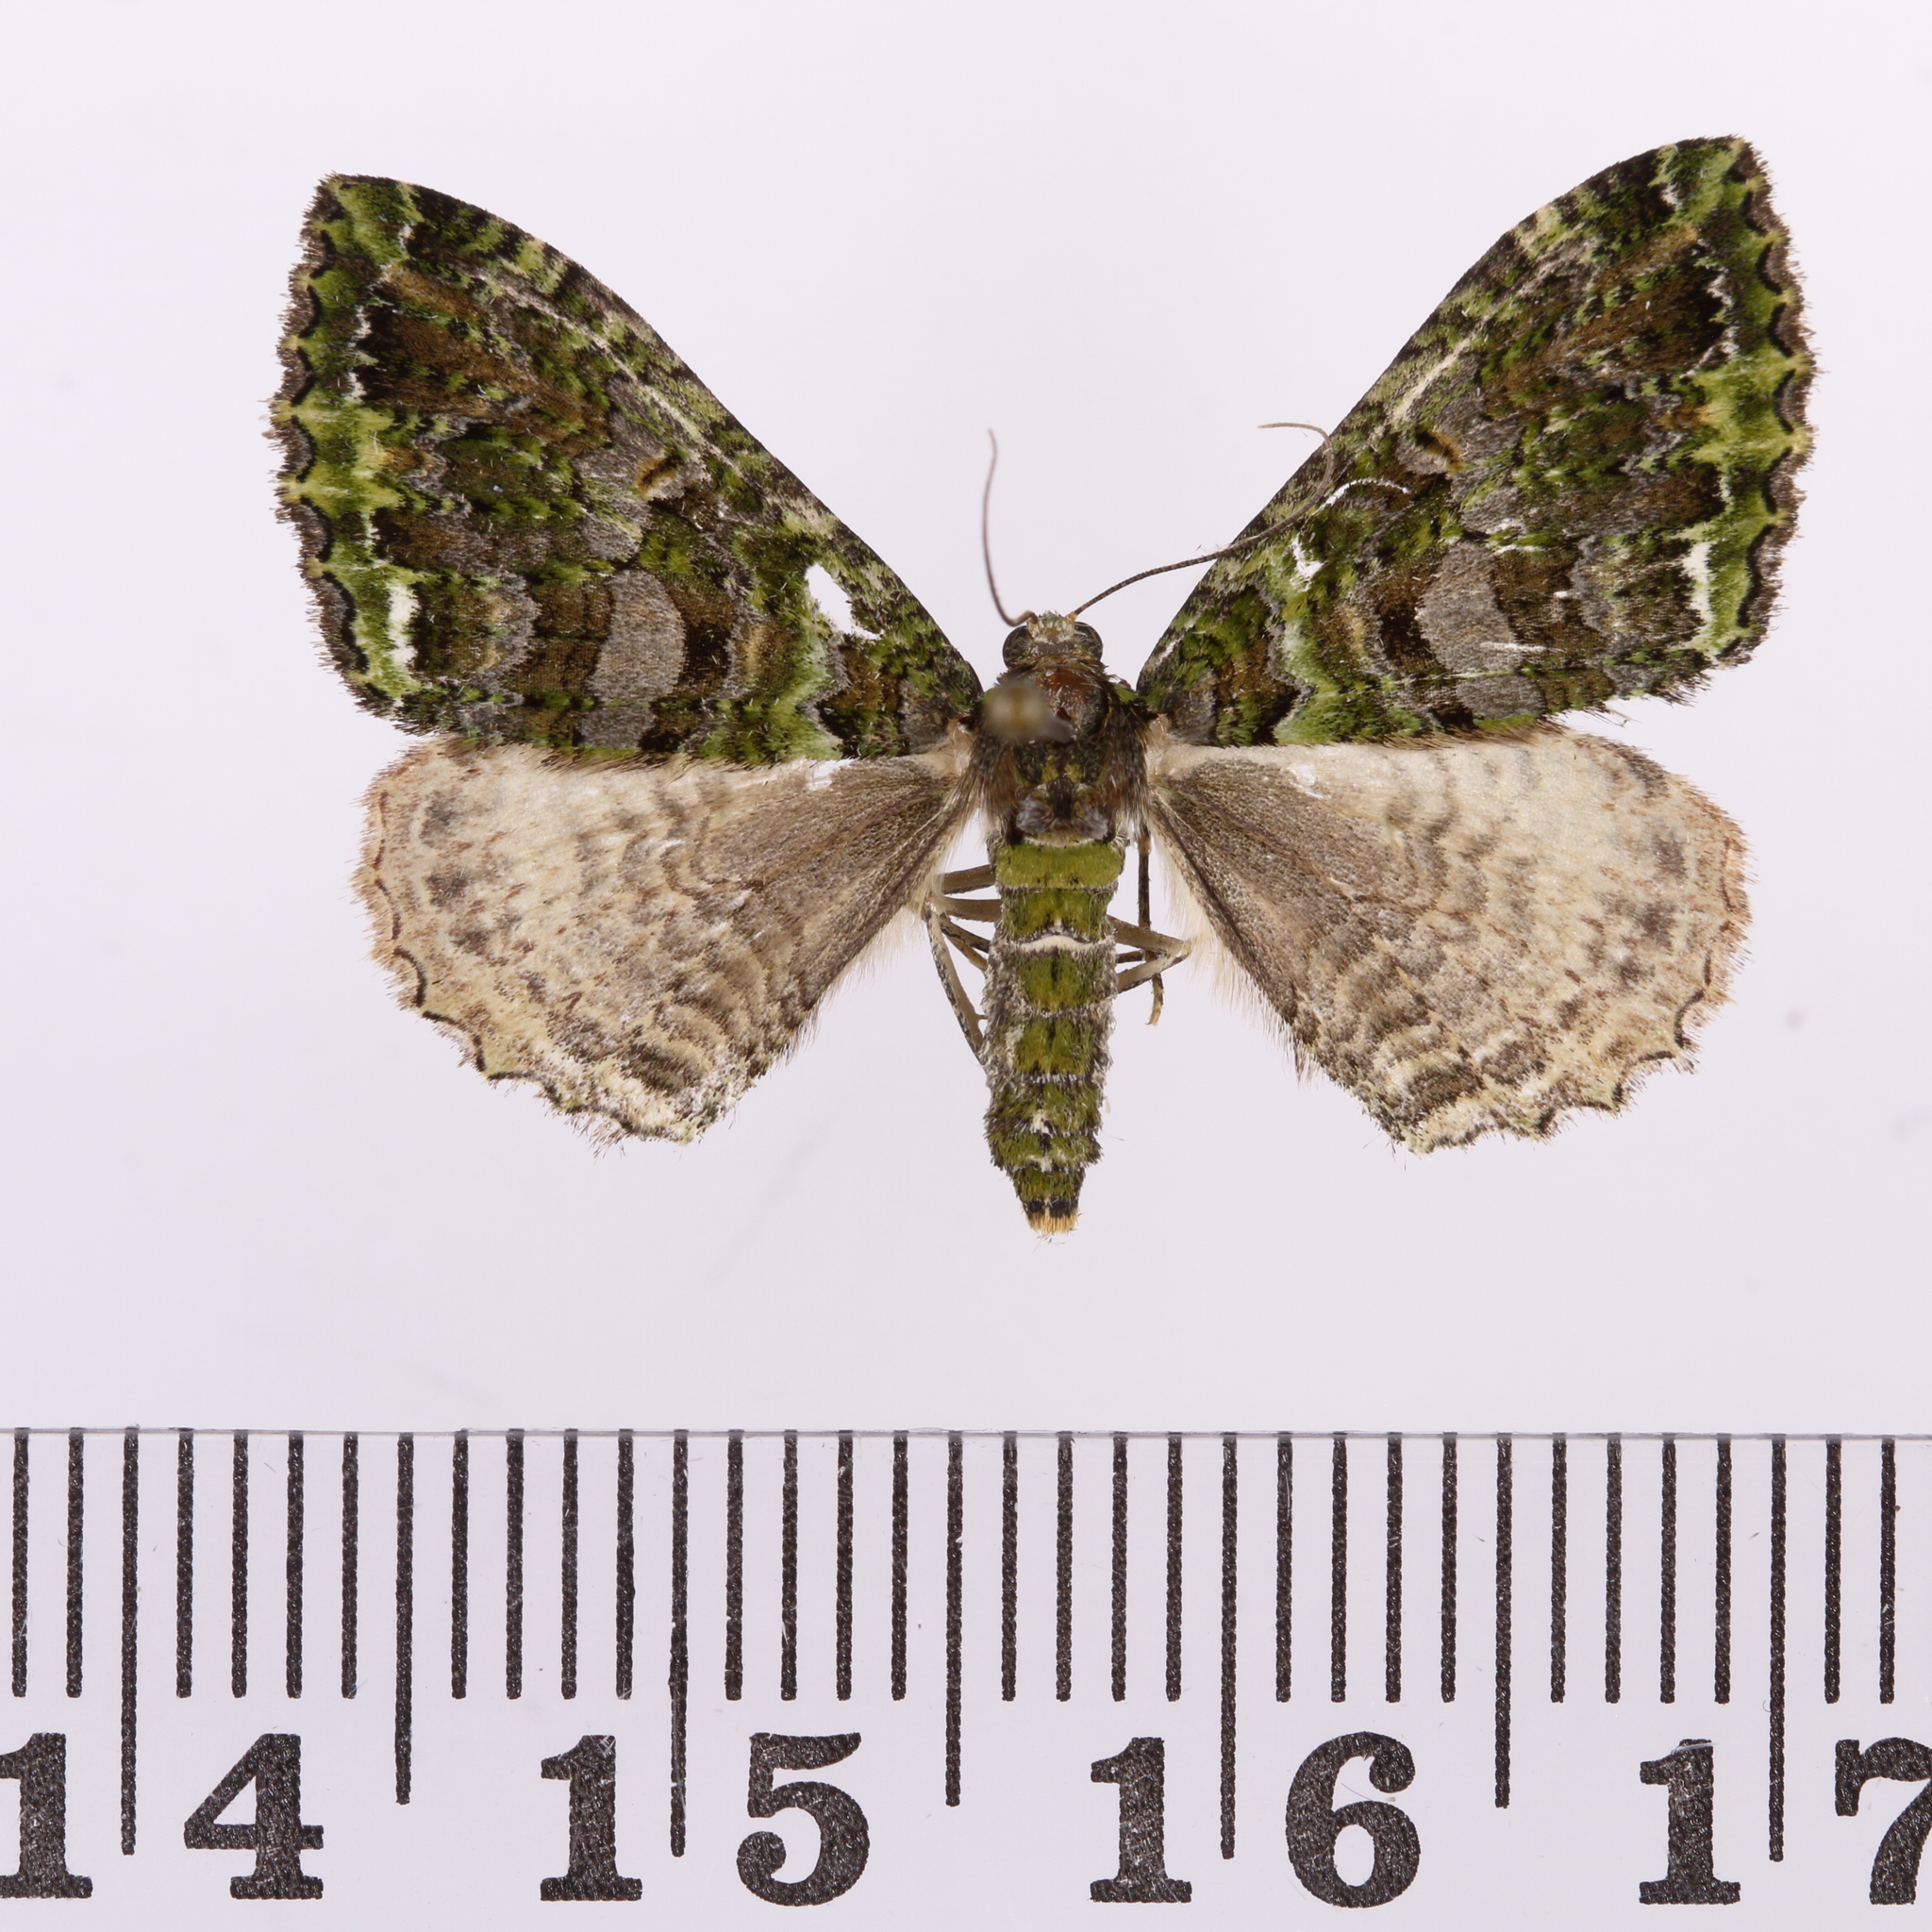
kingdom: Animalia
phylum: Arthropoda
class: Insecta
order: Lepidoptera
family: Geometridae
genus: Austrocidaria
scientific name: Austrocidaria similata
